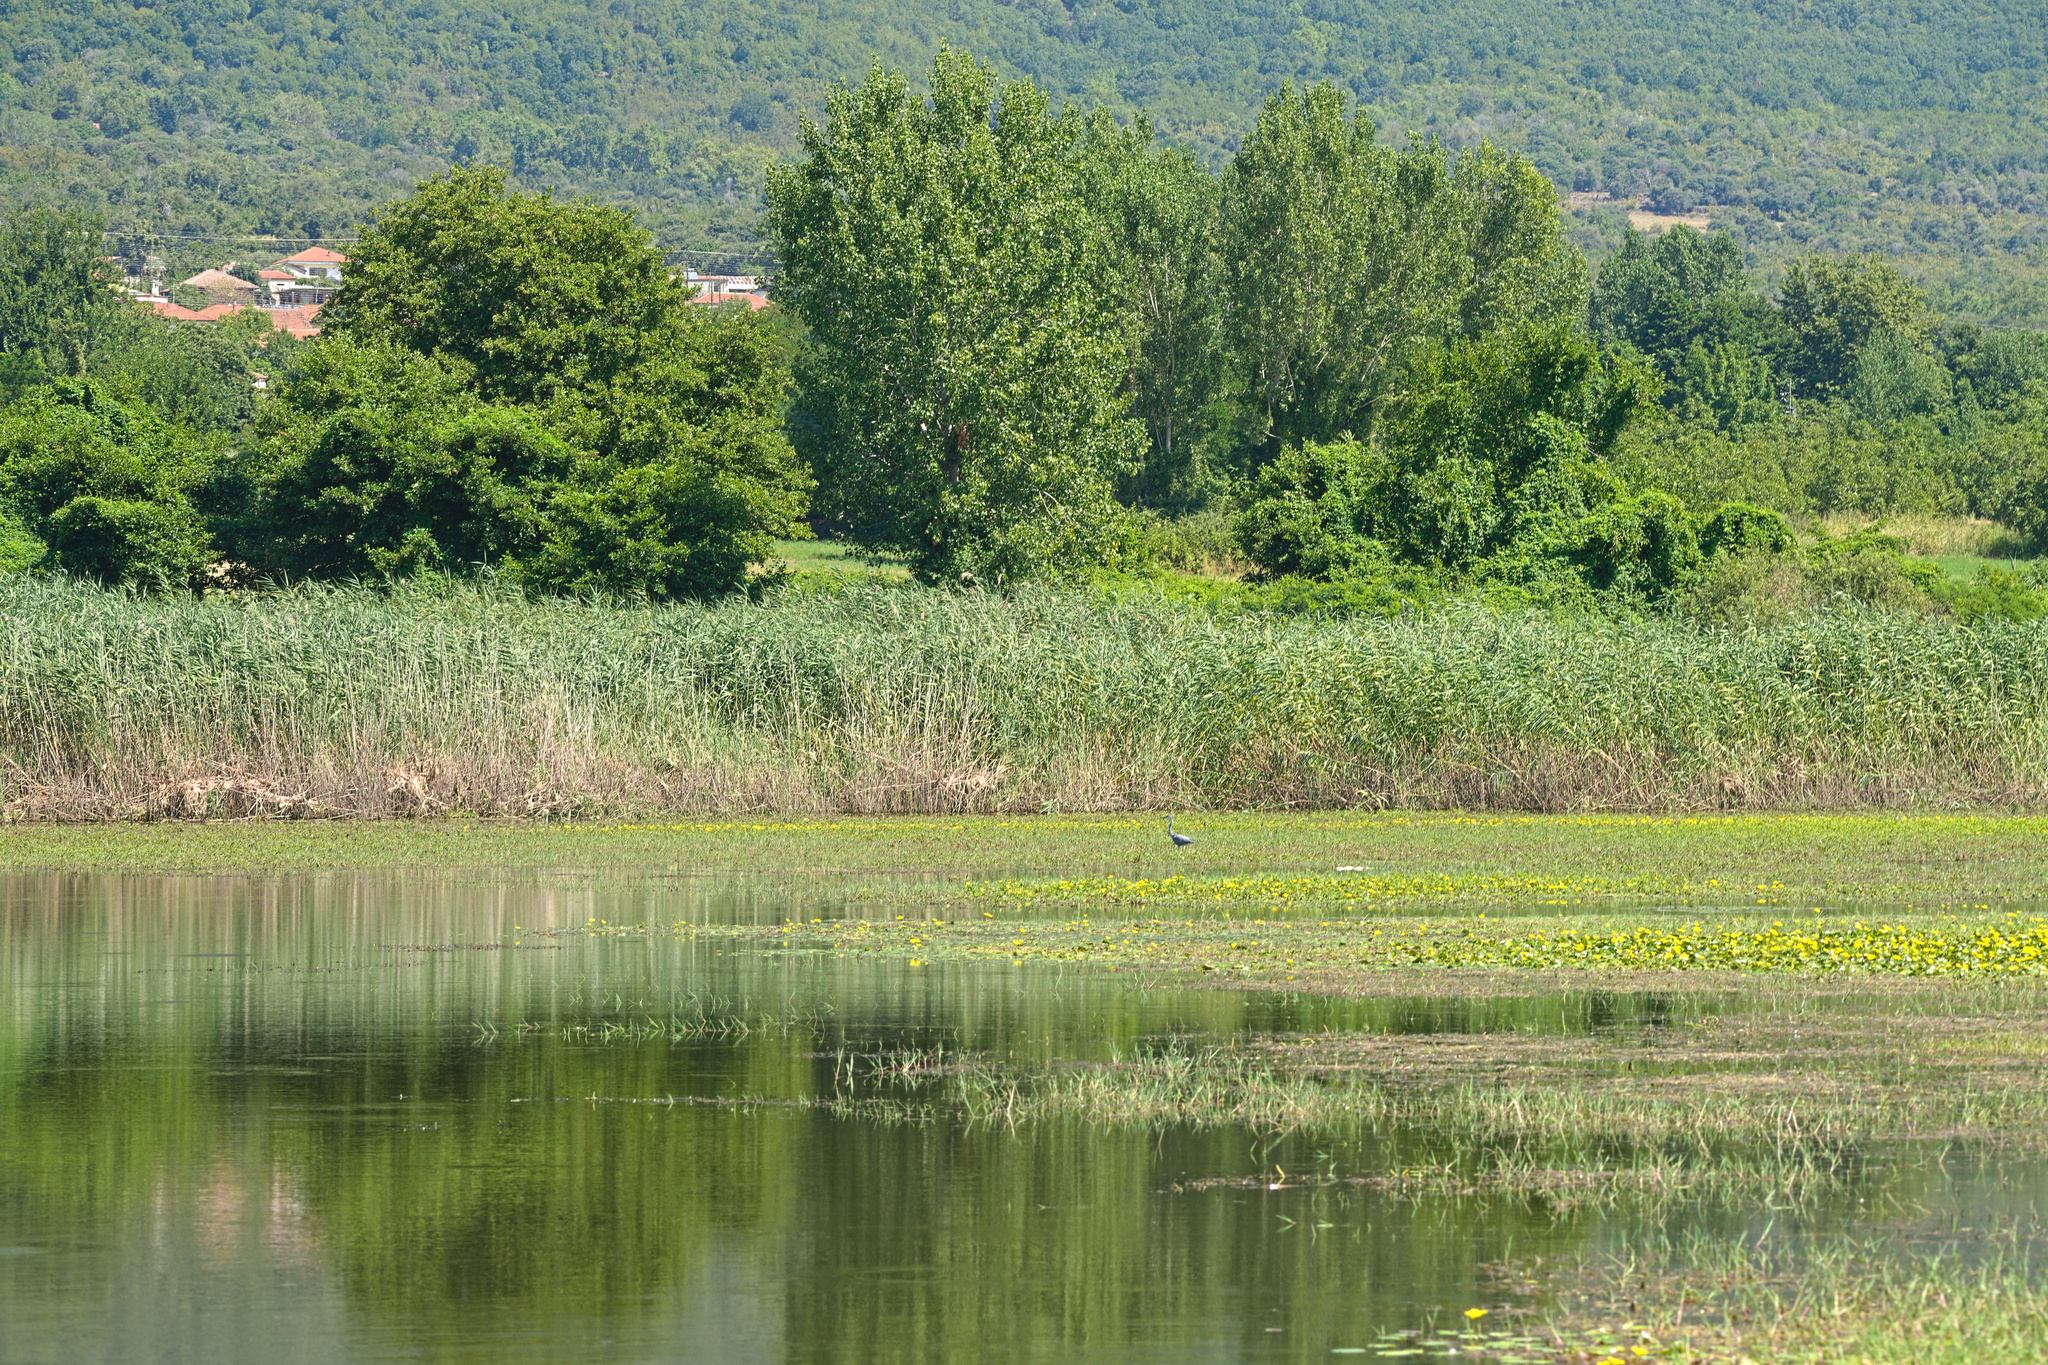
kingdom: Animalia
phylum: Chordata
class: Aves
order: Pelecaniformes
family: Ardeidae
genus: Ardea
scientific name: Ardea cinerea
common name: Grey heron
